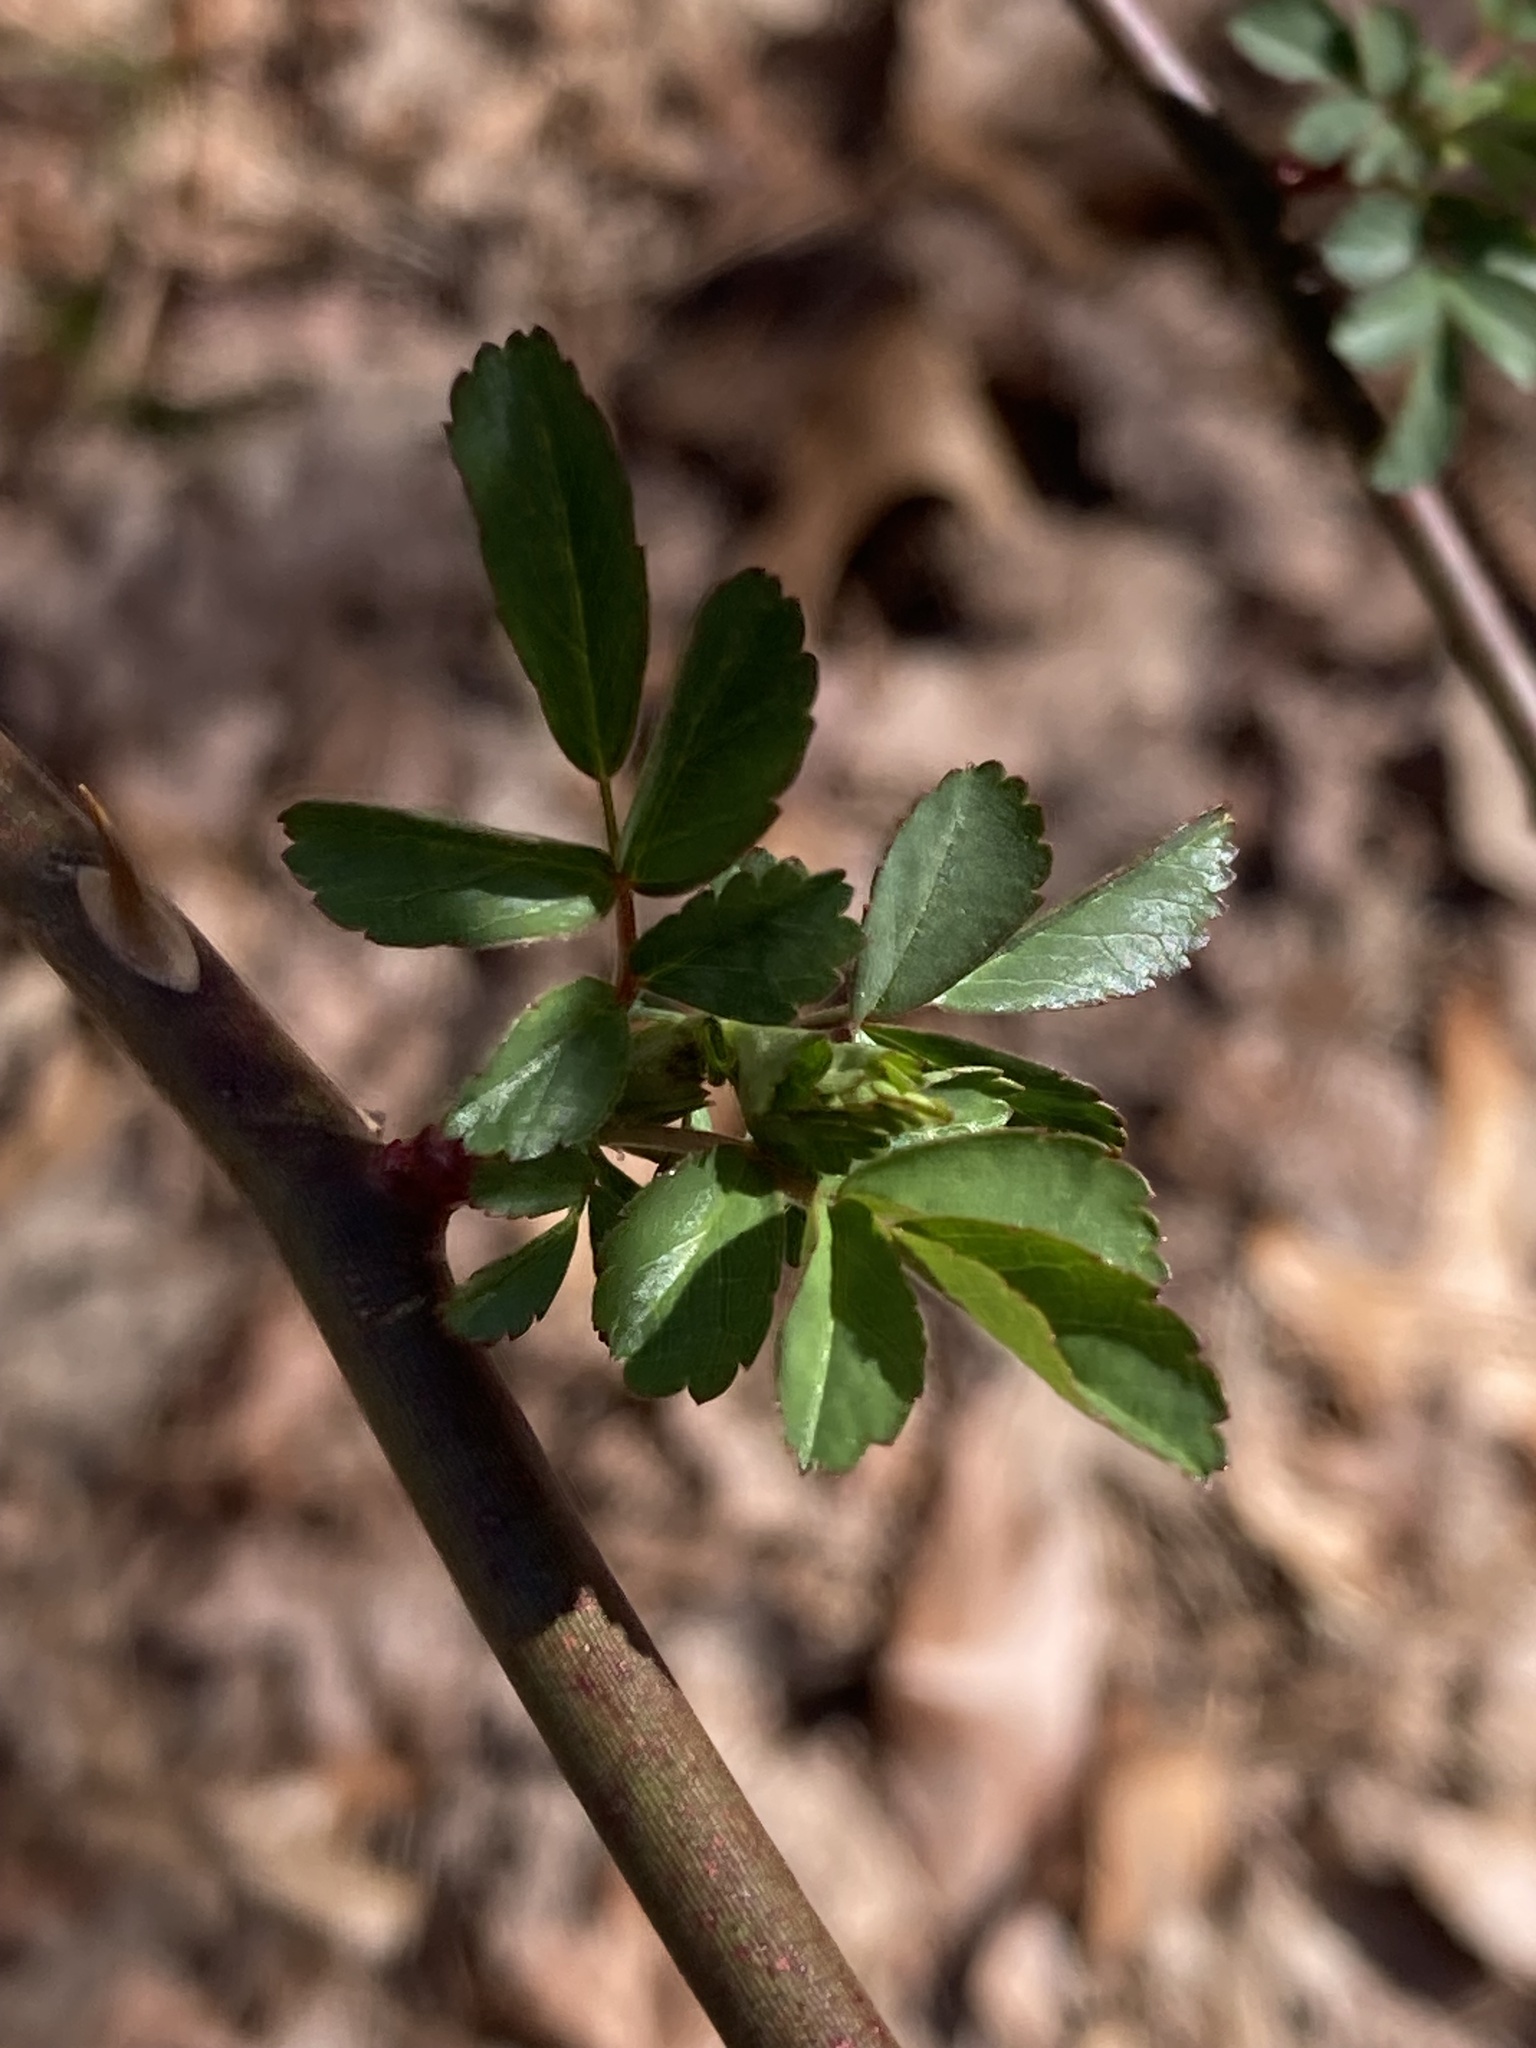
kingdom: Plantae
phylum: Tracheophyta
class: Magnoliopsida
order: Rosales
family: Rosaceae
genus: Rosa
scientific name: Rosa multiflora
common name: Multiflora rose
